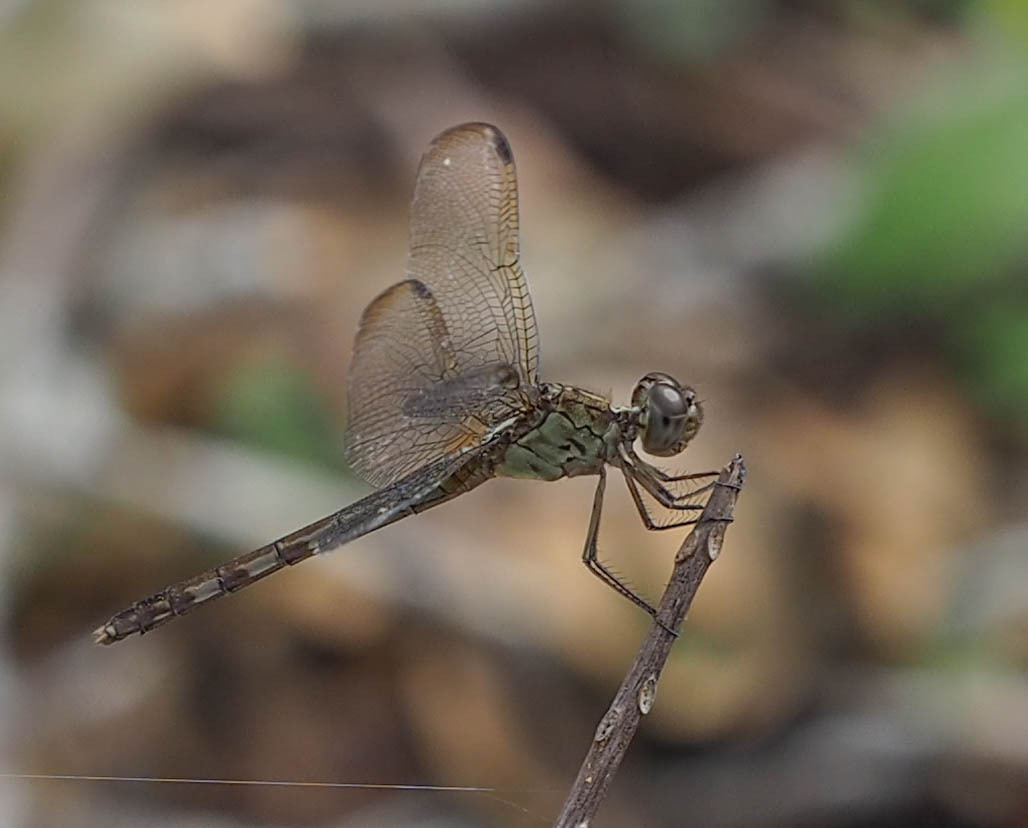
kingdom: Animalia
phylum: Arthropoda
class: Insecta
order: Odonata
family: Libellulidae
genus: Erythrodiplax
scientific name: Erythrodiplax umbrata
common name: Band-winged dragonlet
